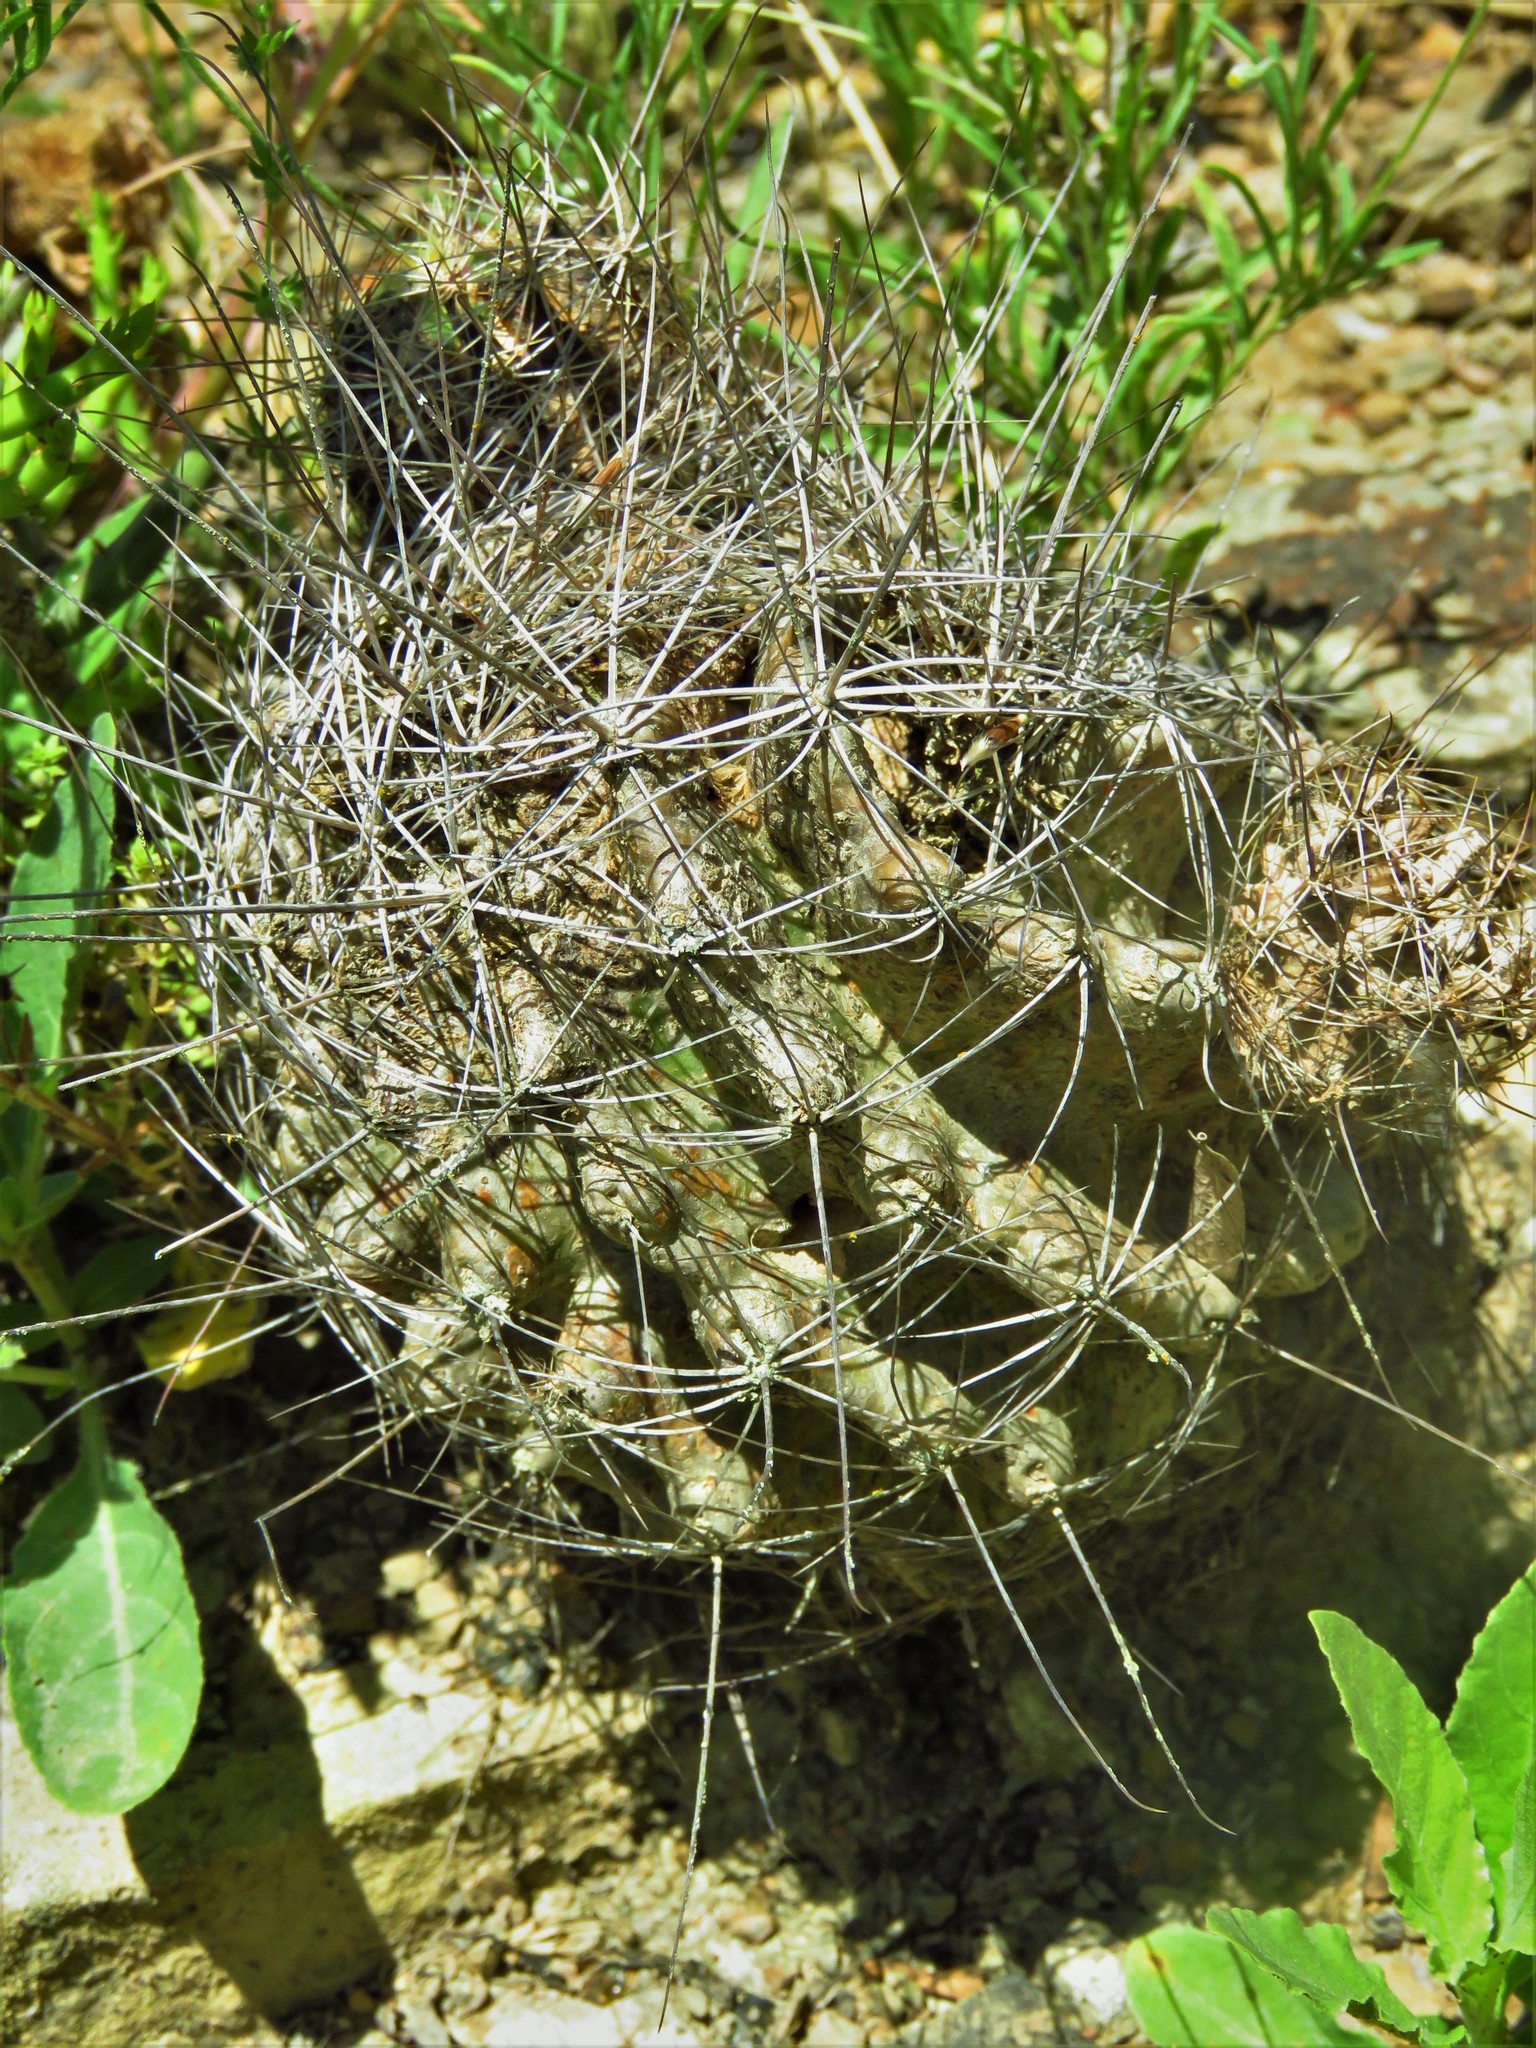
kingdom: Plantae
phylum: Tracheophyta
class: Magnoliopsida
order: Caryophyllales
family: Cactaceae
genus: Thelocactus
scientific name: Thelocactus setispinus
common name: Miniature barrel cactus
